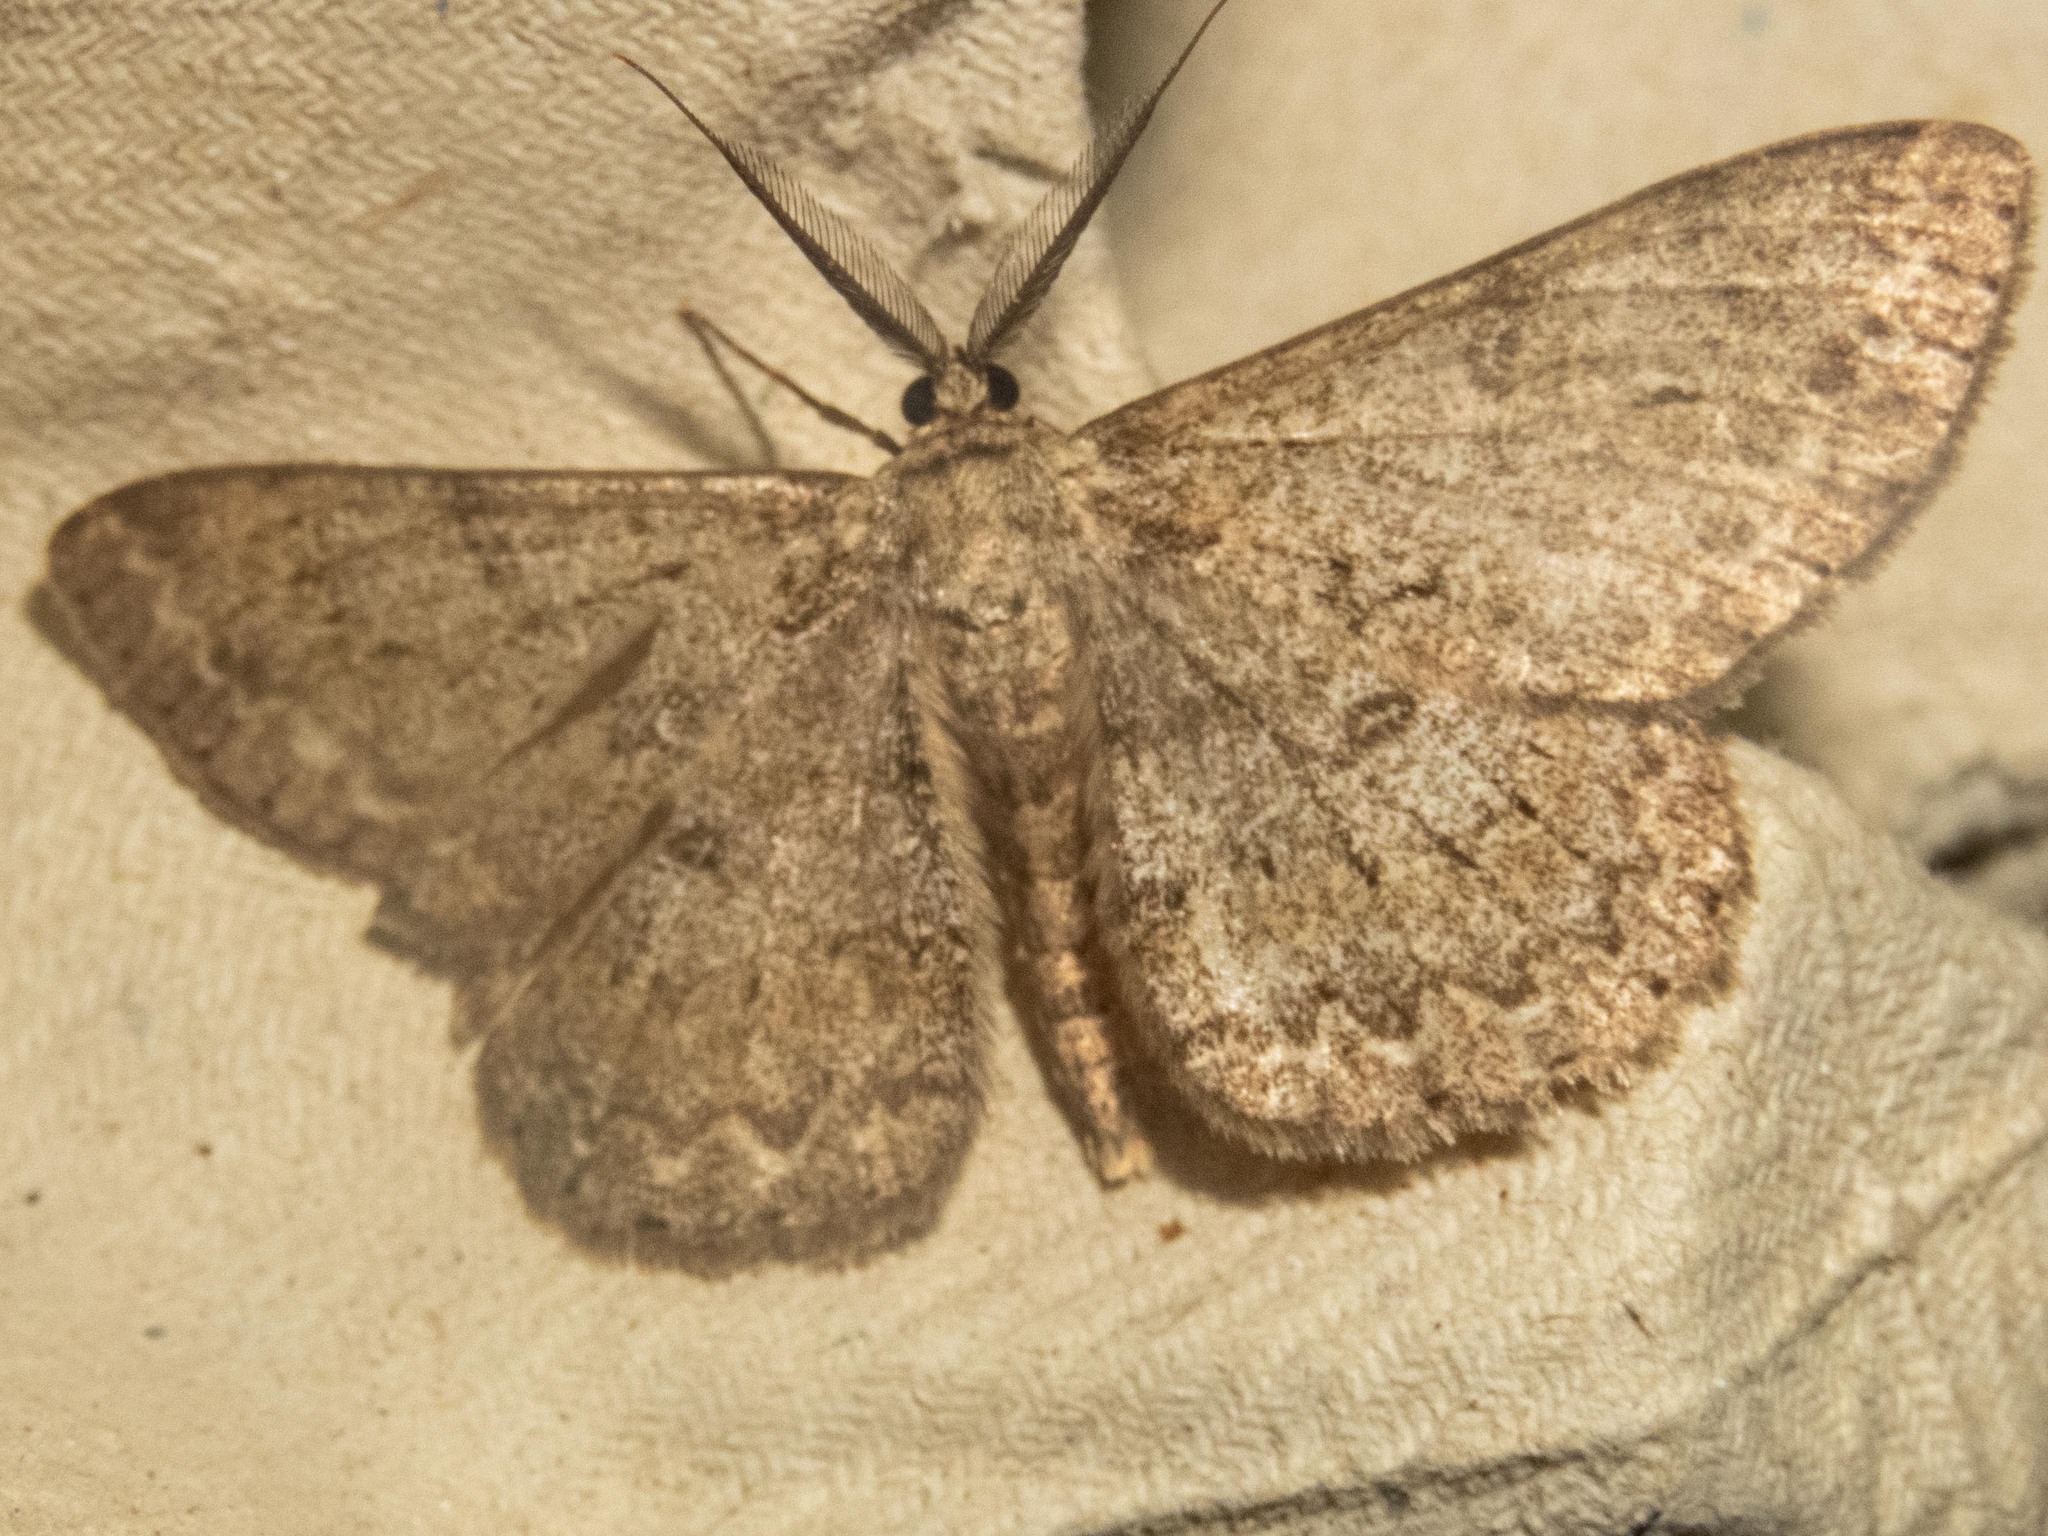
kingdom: Animalia
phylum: Arthropoda
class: Insecta
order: Lepidoptera
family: Geometridae
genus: Hypomecis
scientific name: Hypomecis punctinalis
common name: Pale oak beauty
